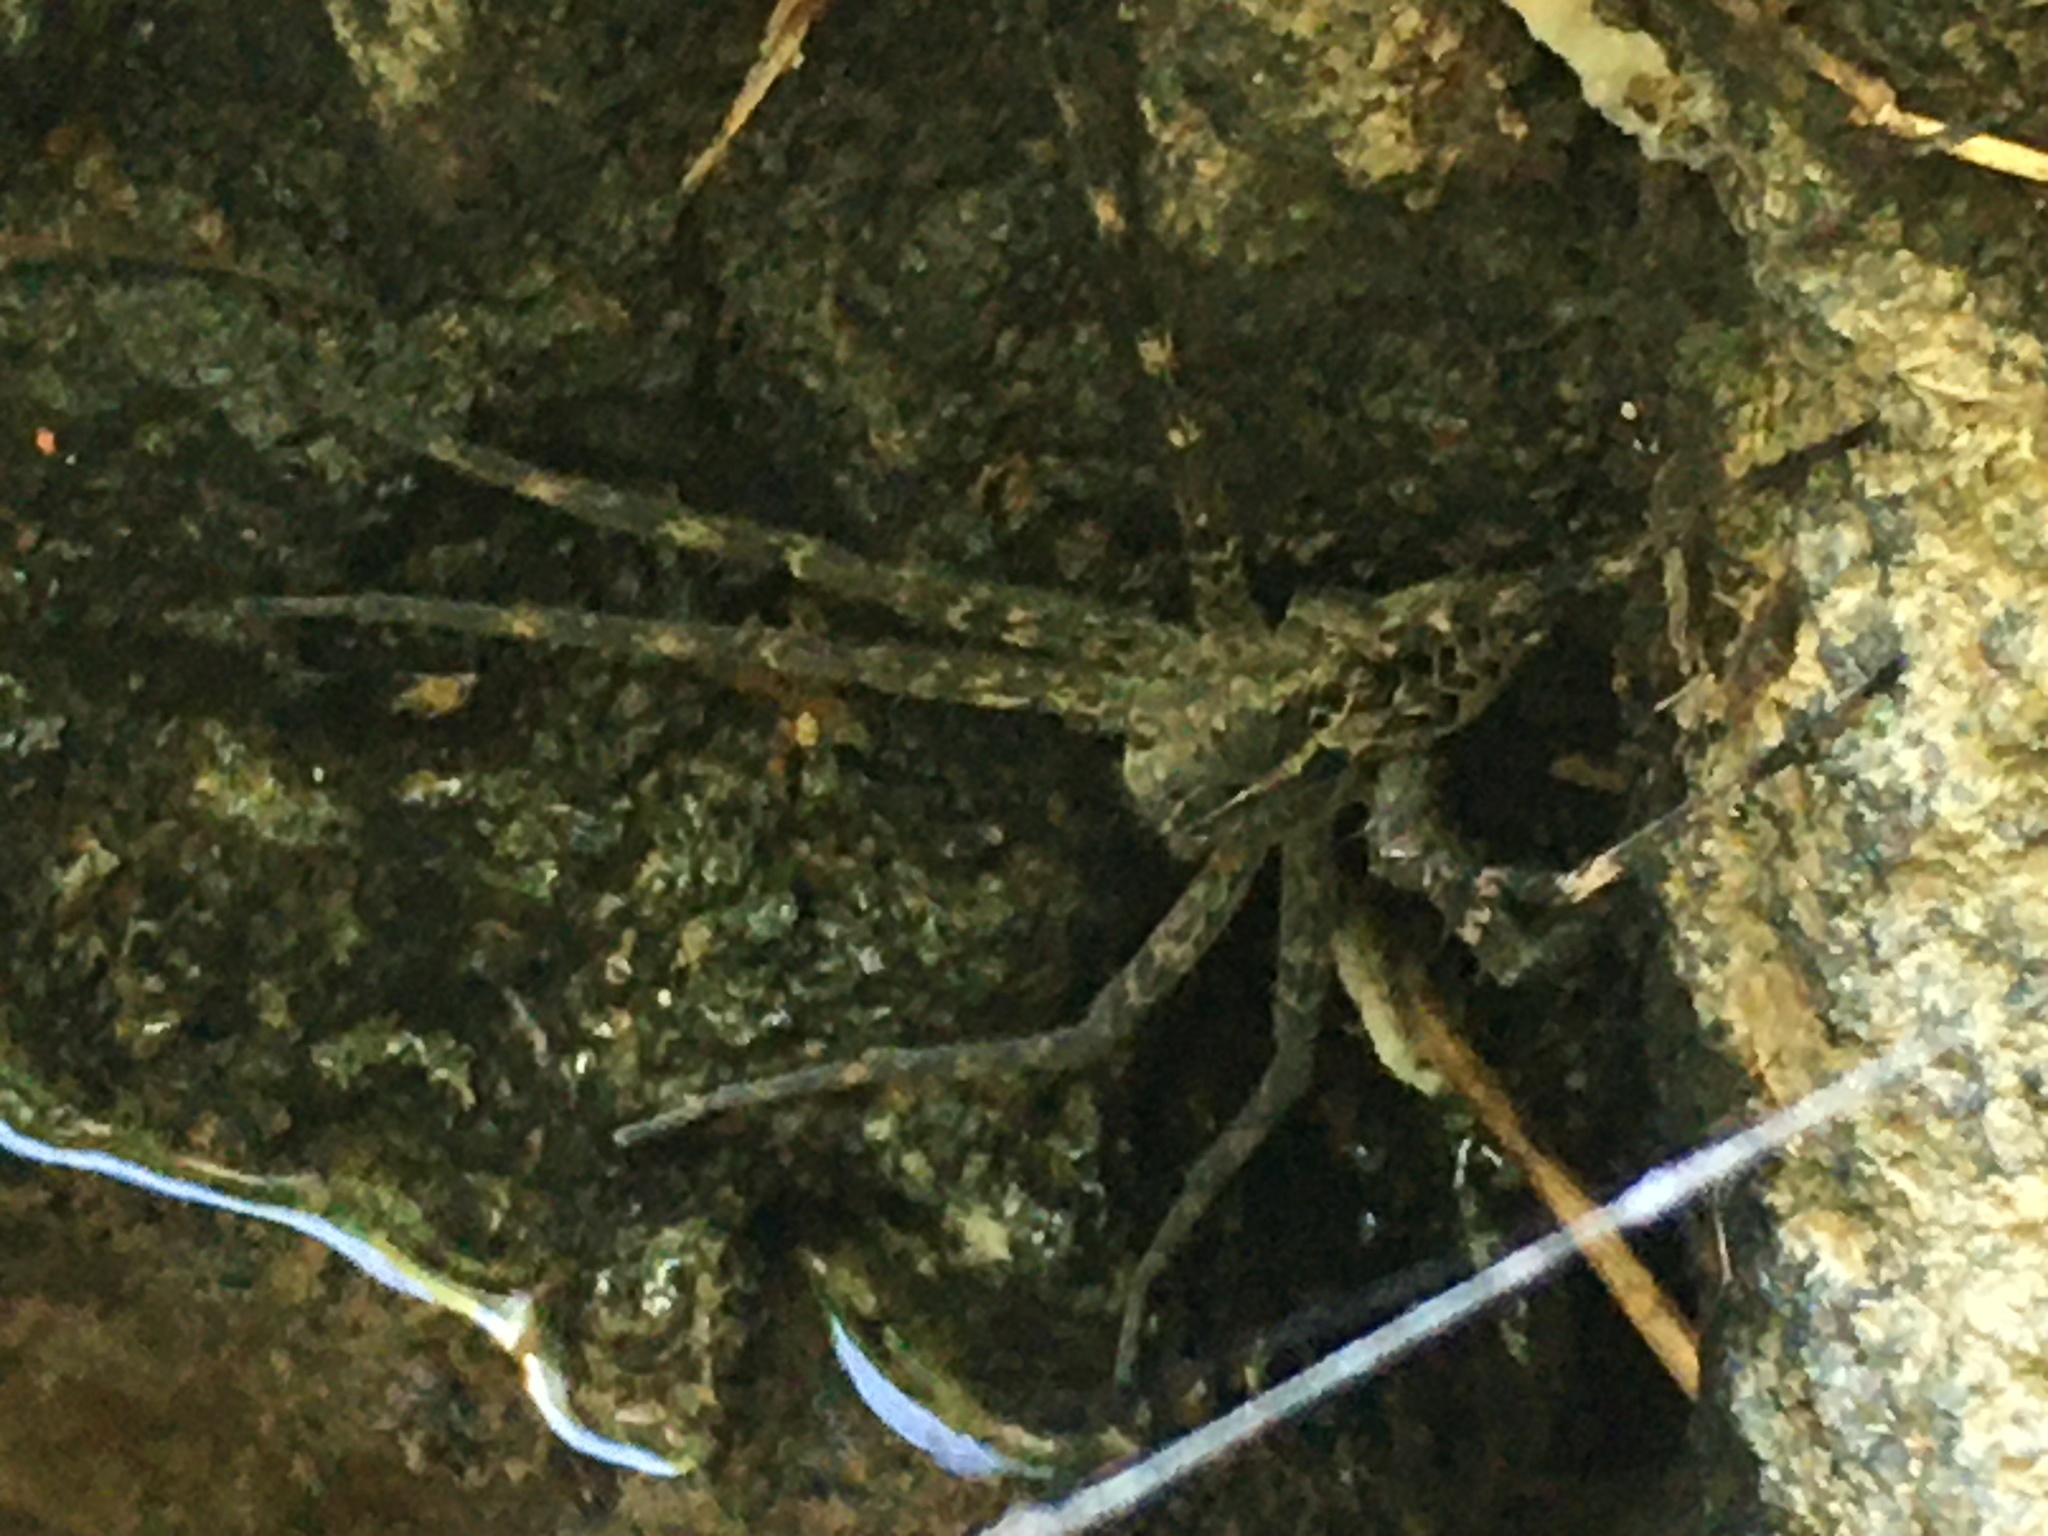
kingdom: Animalia
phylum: Arthropoda
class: Arachnida
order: Araneae
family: Pisauridae
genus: Dolomedes
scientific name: Dolomedes scriptus
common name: Striped fishing spider
